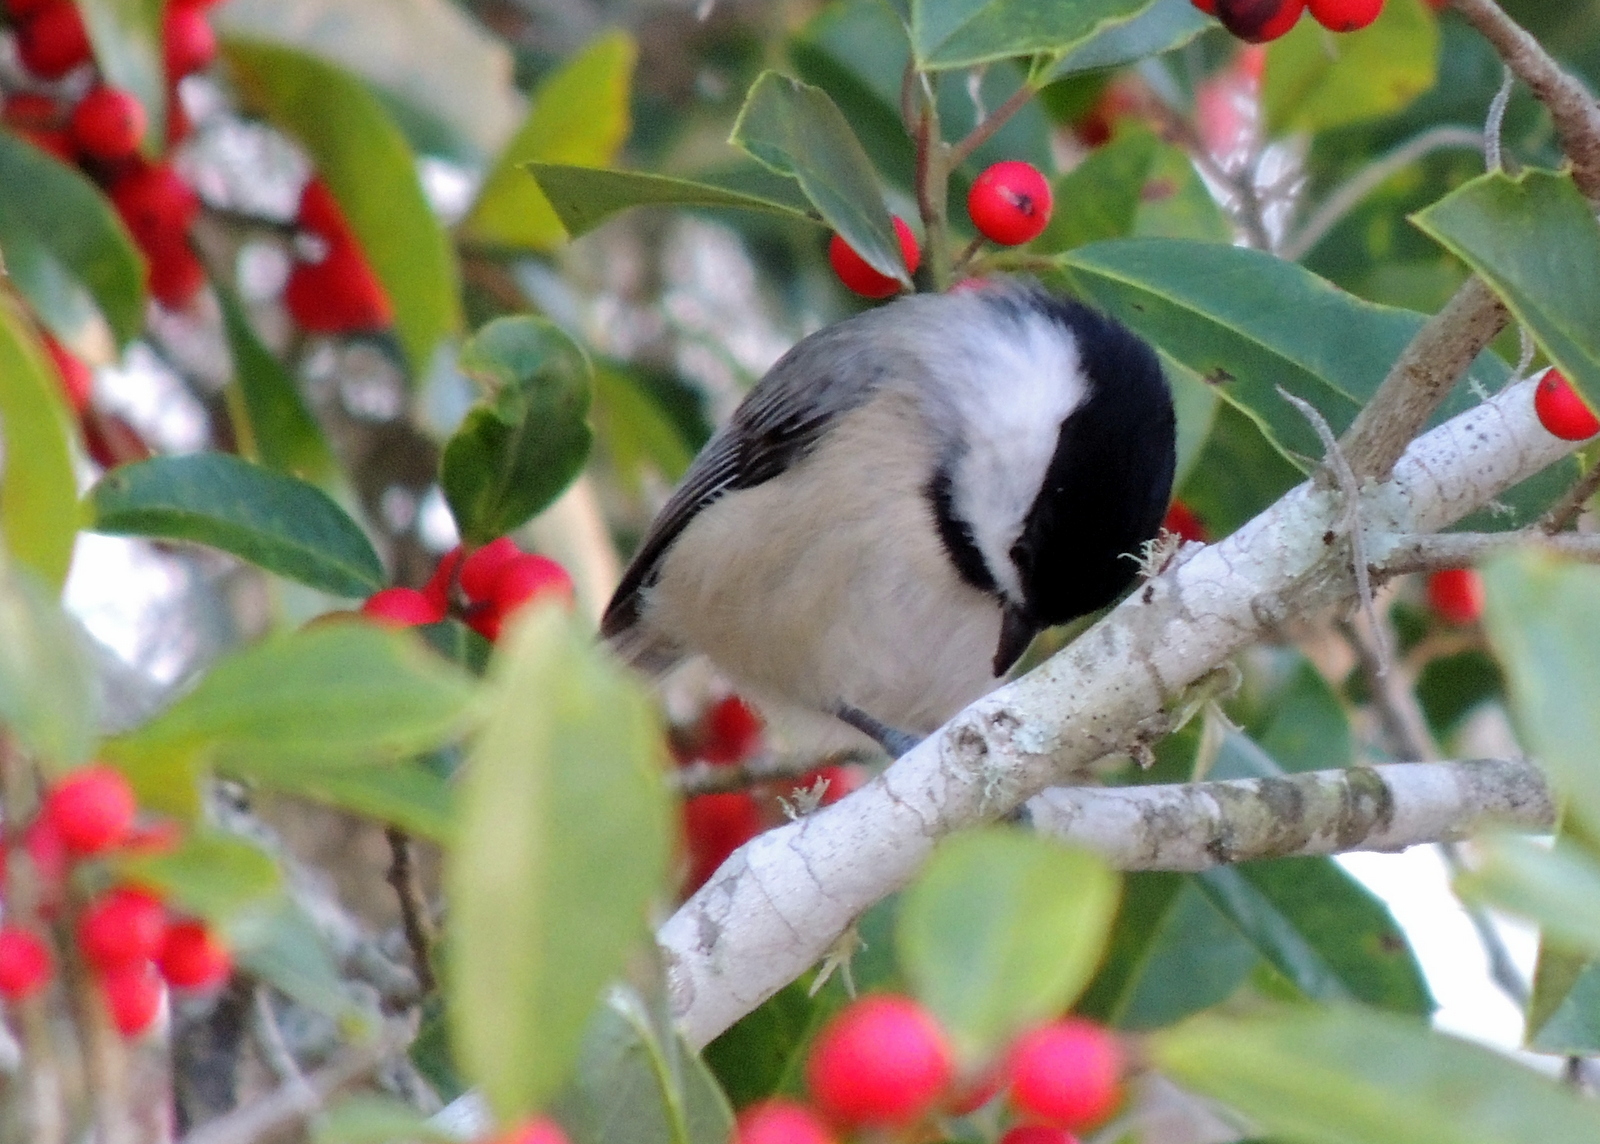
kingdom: Animalia
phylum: Chordata
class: Aves
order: Passeriformes
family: Paridae
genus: Poecile
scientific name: Poecile carolinensis
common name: Carolina chickadee
